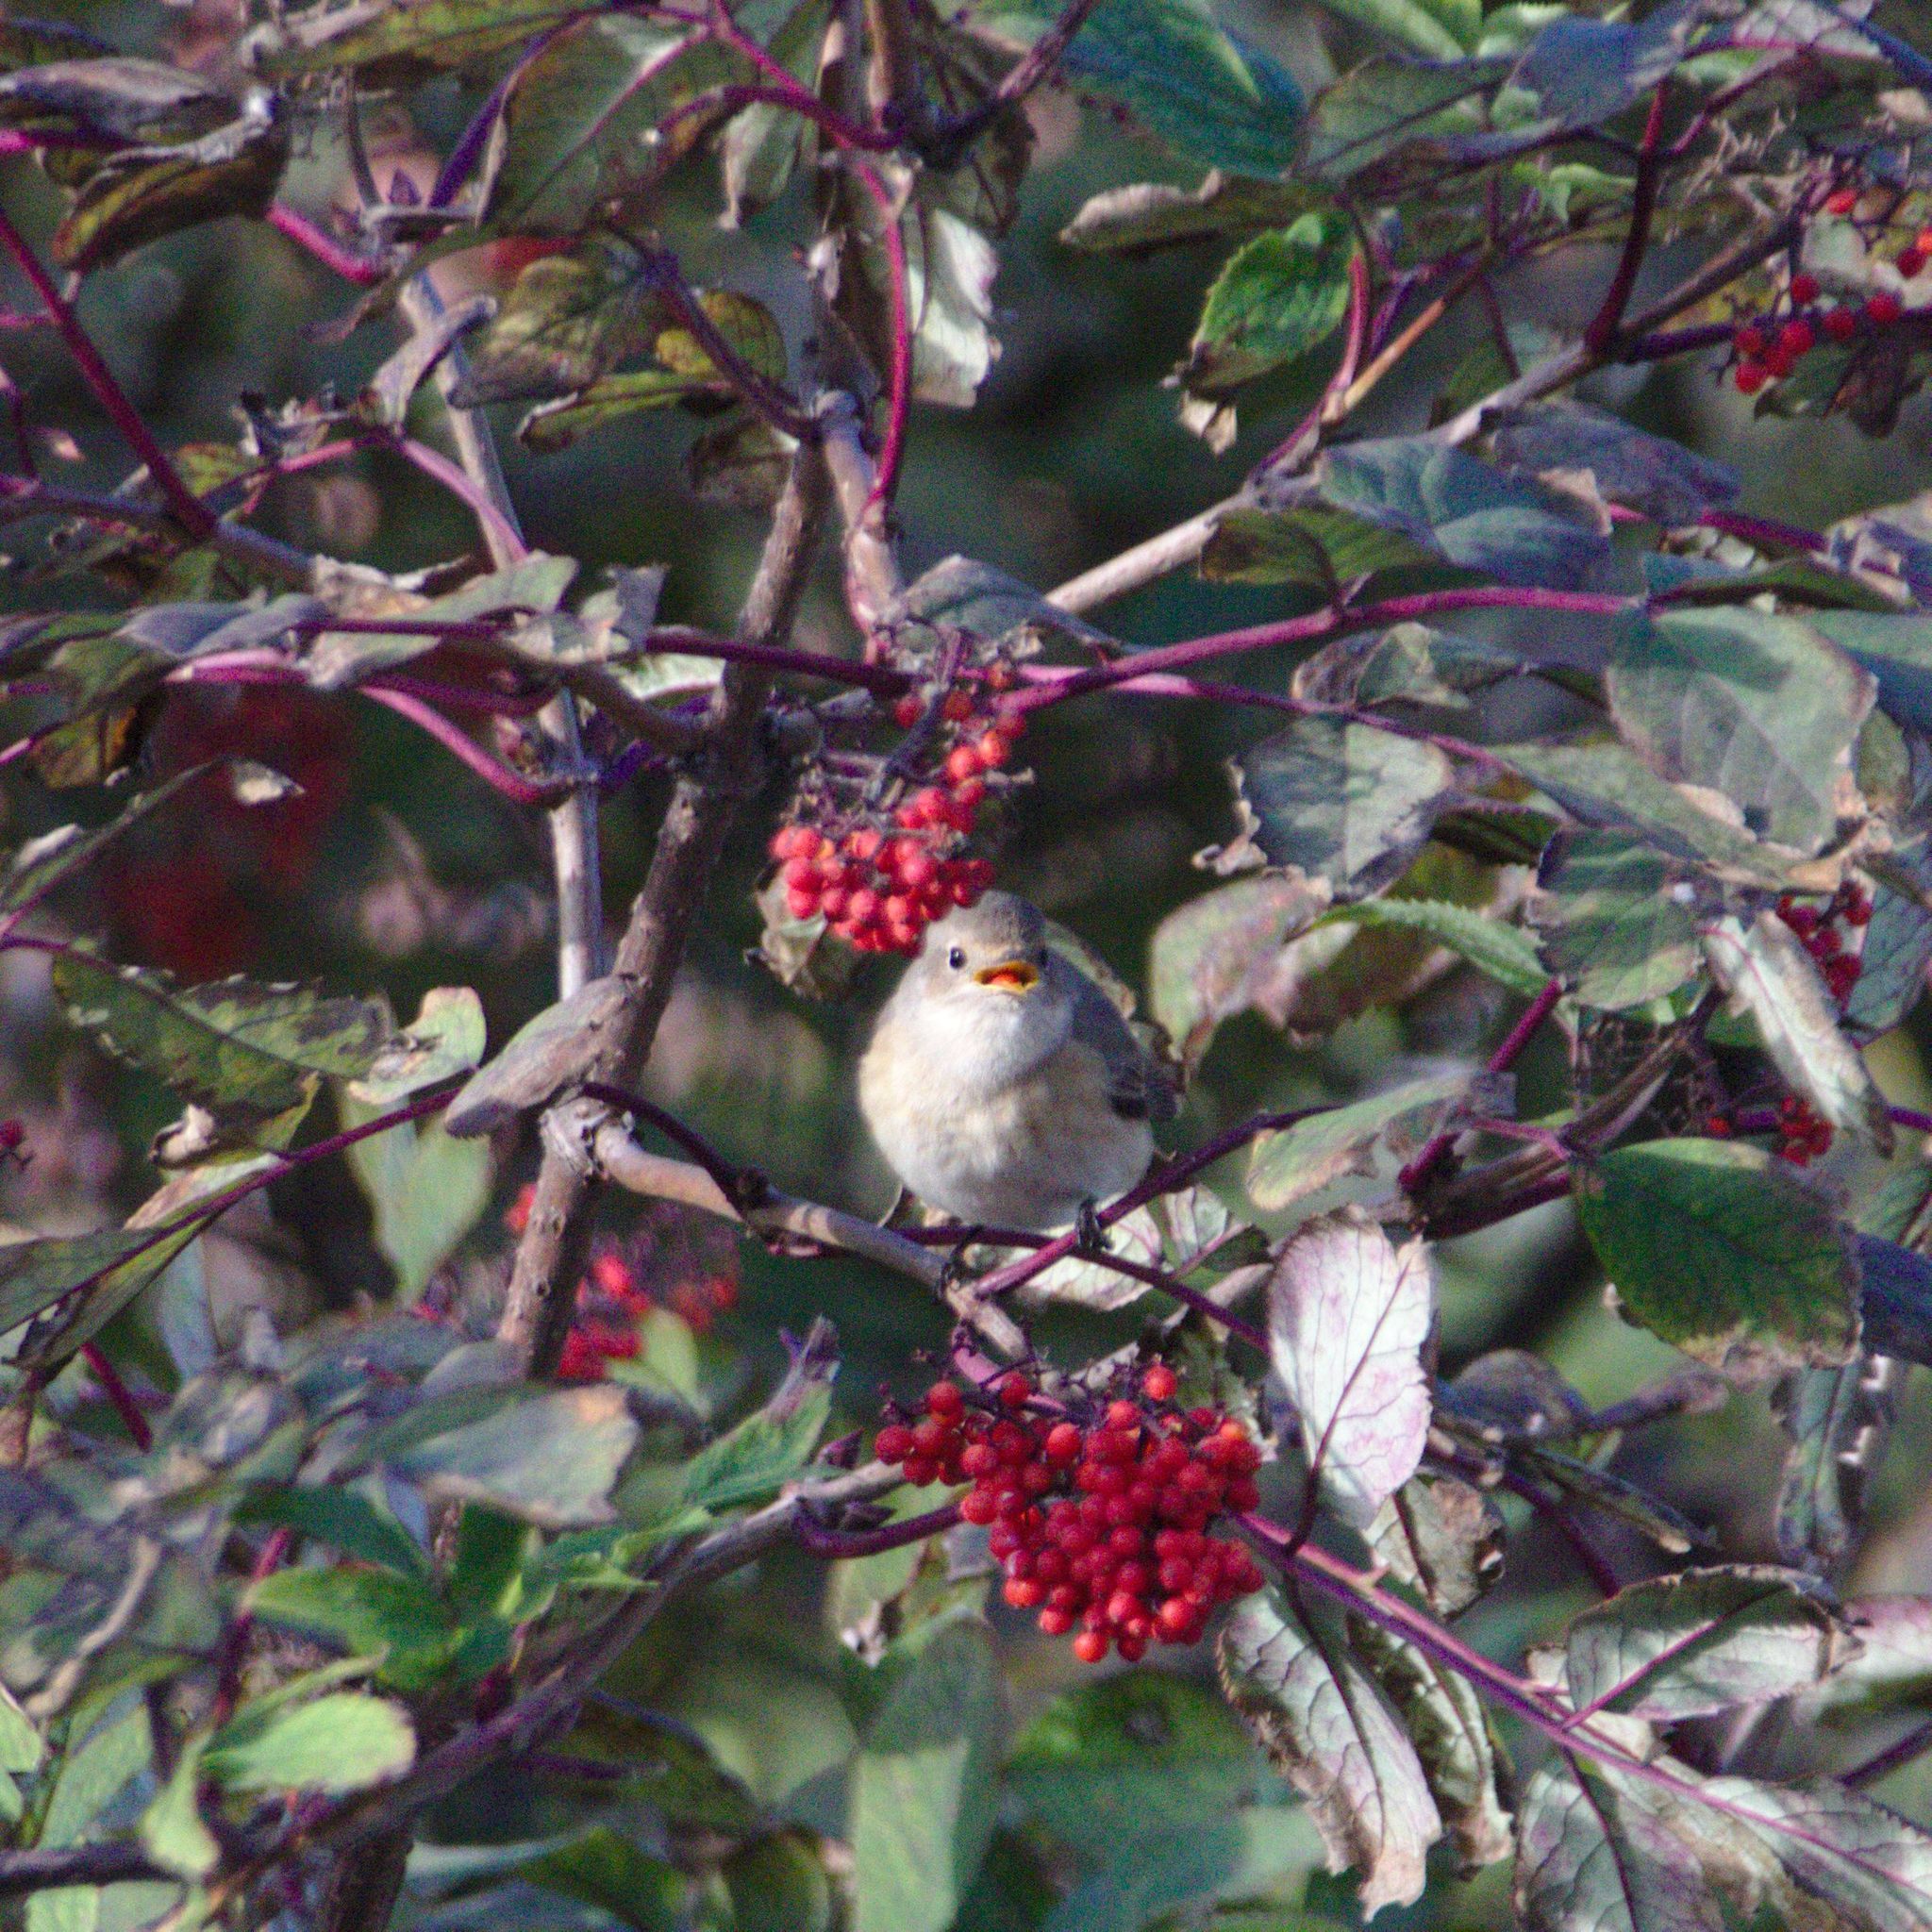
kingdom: Animalia
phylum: Chordata
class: Aves
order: Passeriformes
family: Muscicapidae
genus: Phoenicurus
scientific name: Phoenicurus phoenicurus
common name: Common redstart
